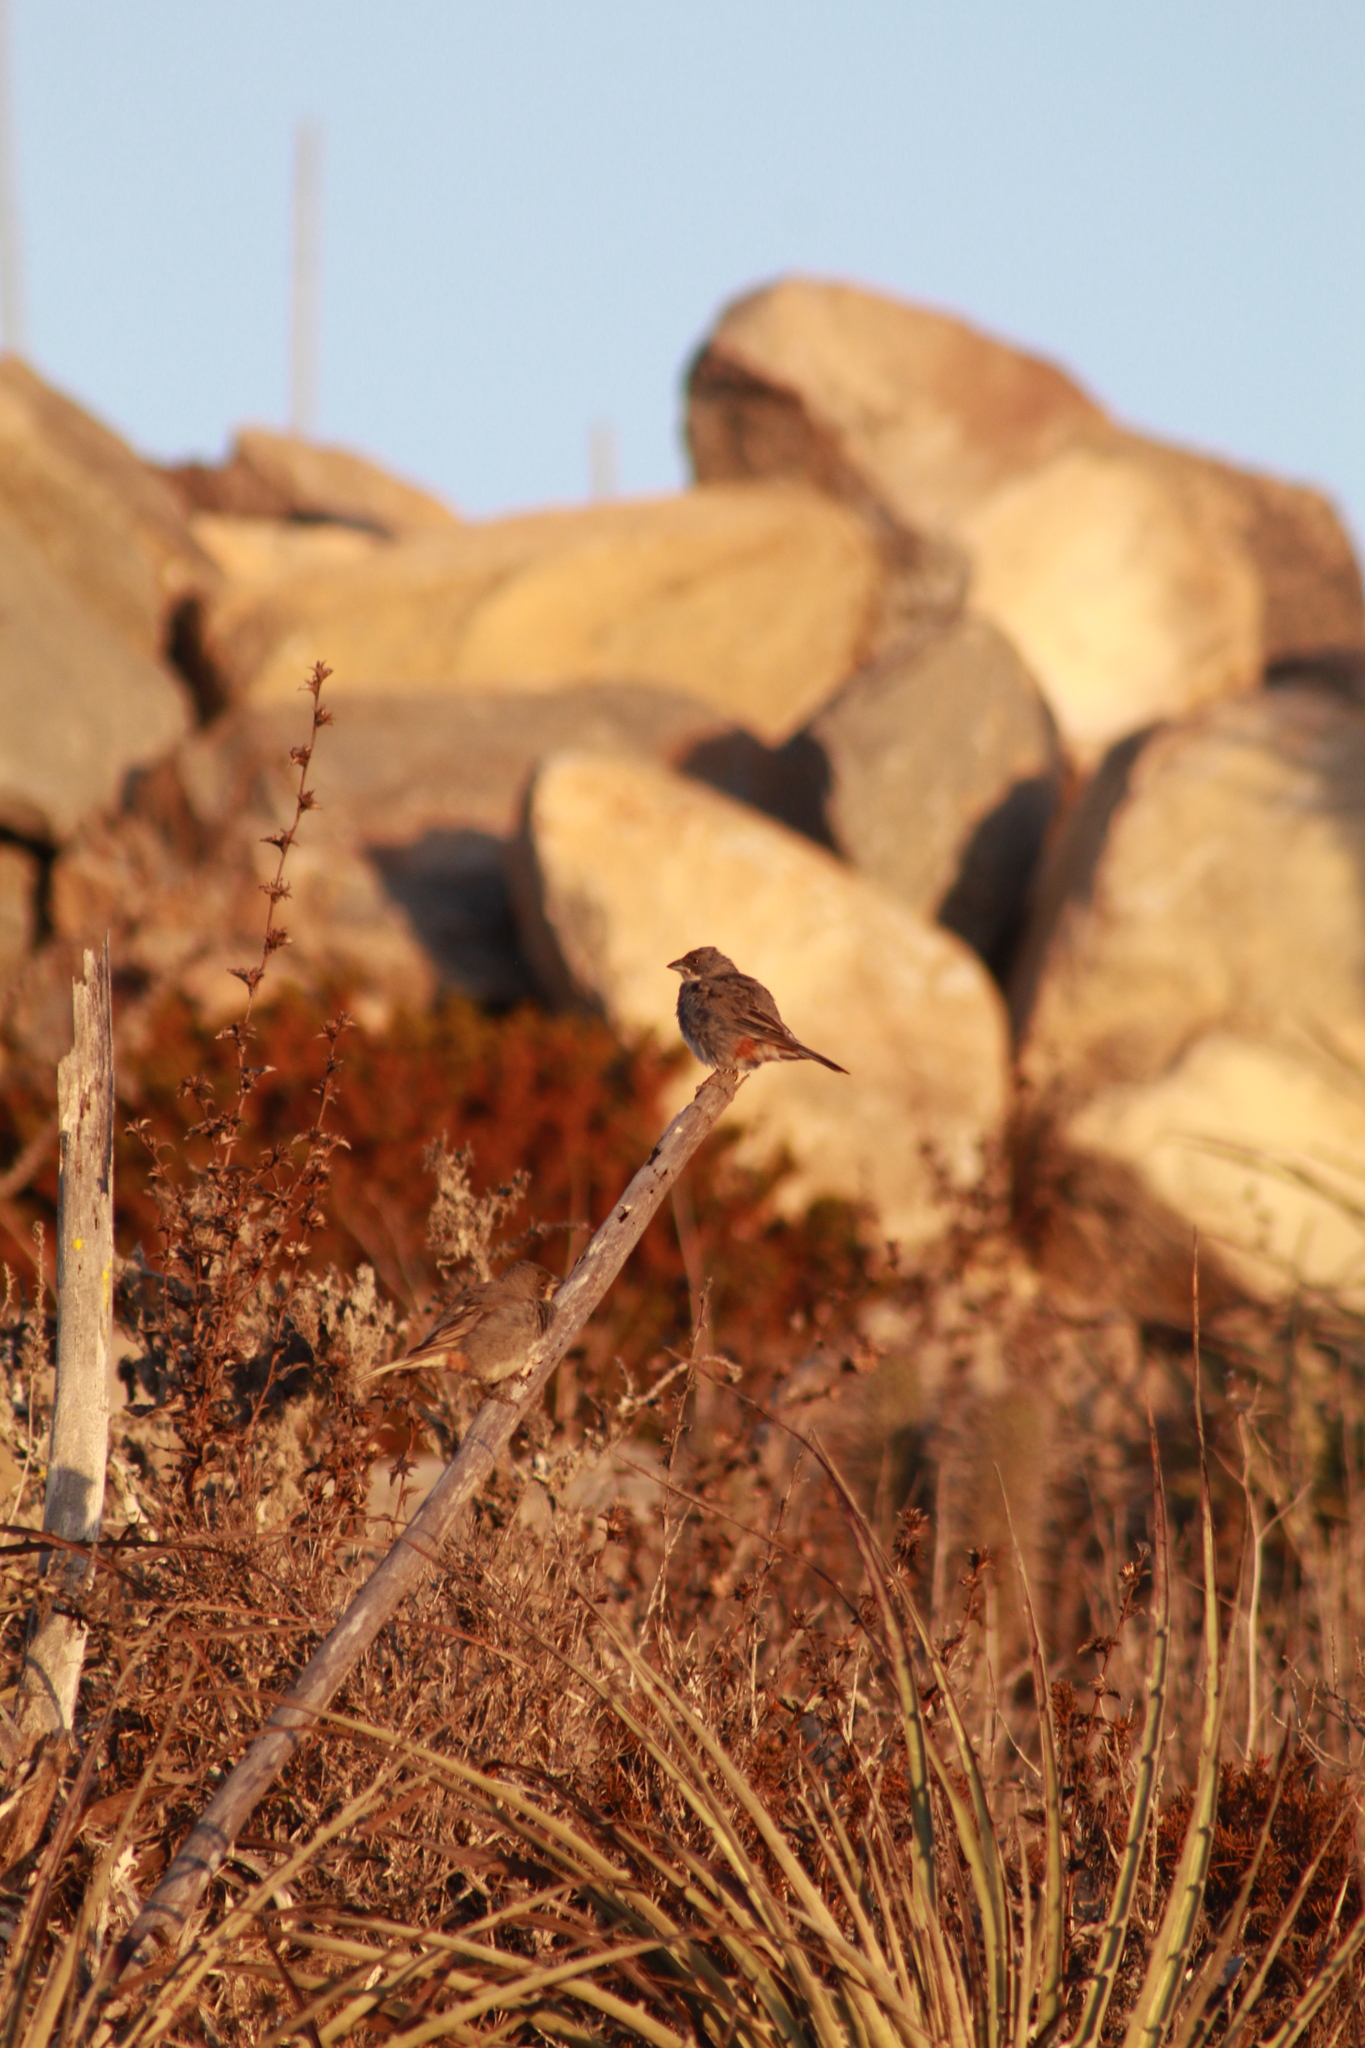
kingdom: Animalia
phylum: Chordata
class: Aves
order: Passeriformes
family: Thraupidae
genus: Diuca
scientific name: Diuca diuca
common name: Common diuca finch
